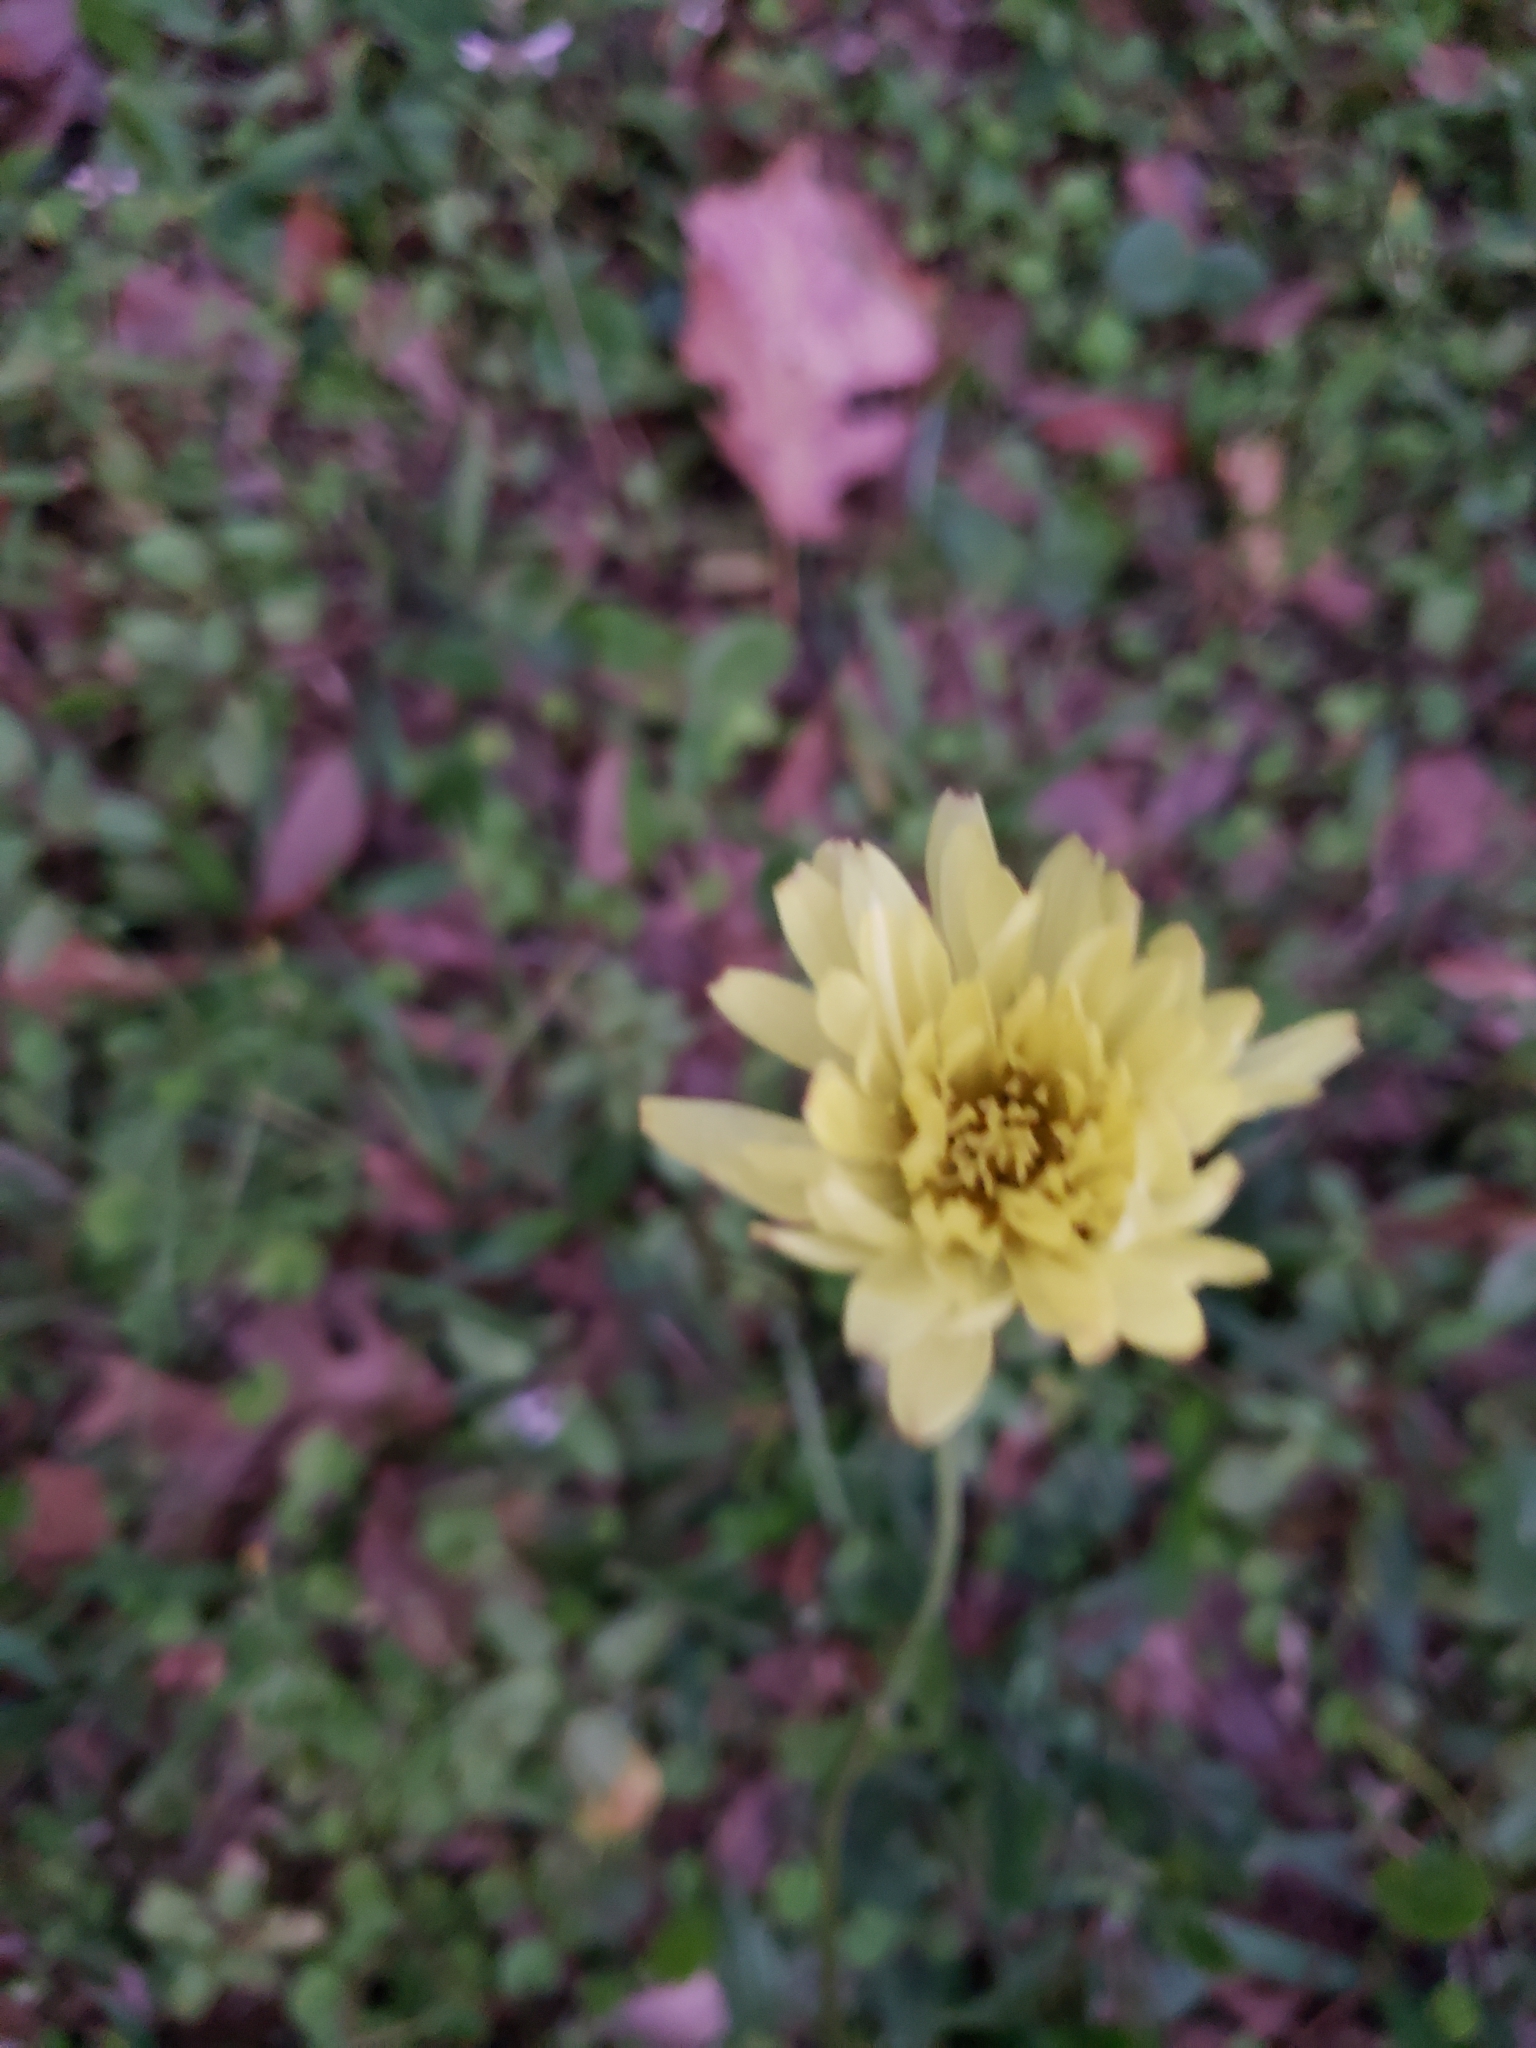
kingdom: Plantae
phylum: Tracheophyta
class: Magnoliopsida
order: Asterales
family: Asteraceae
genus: Pyrrhopappus
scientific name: Pyrrhopappus carolinianus
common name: Carolina desert-chicory
